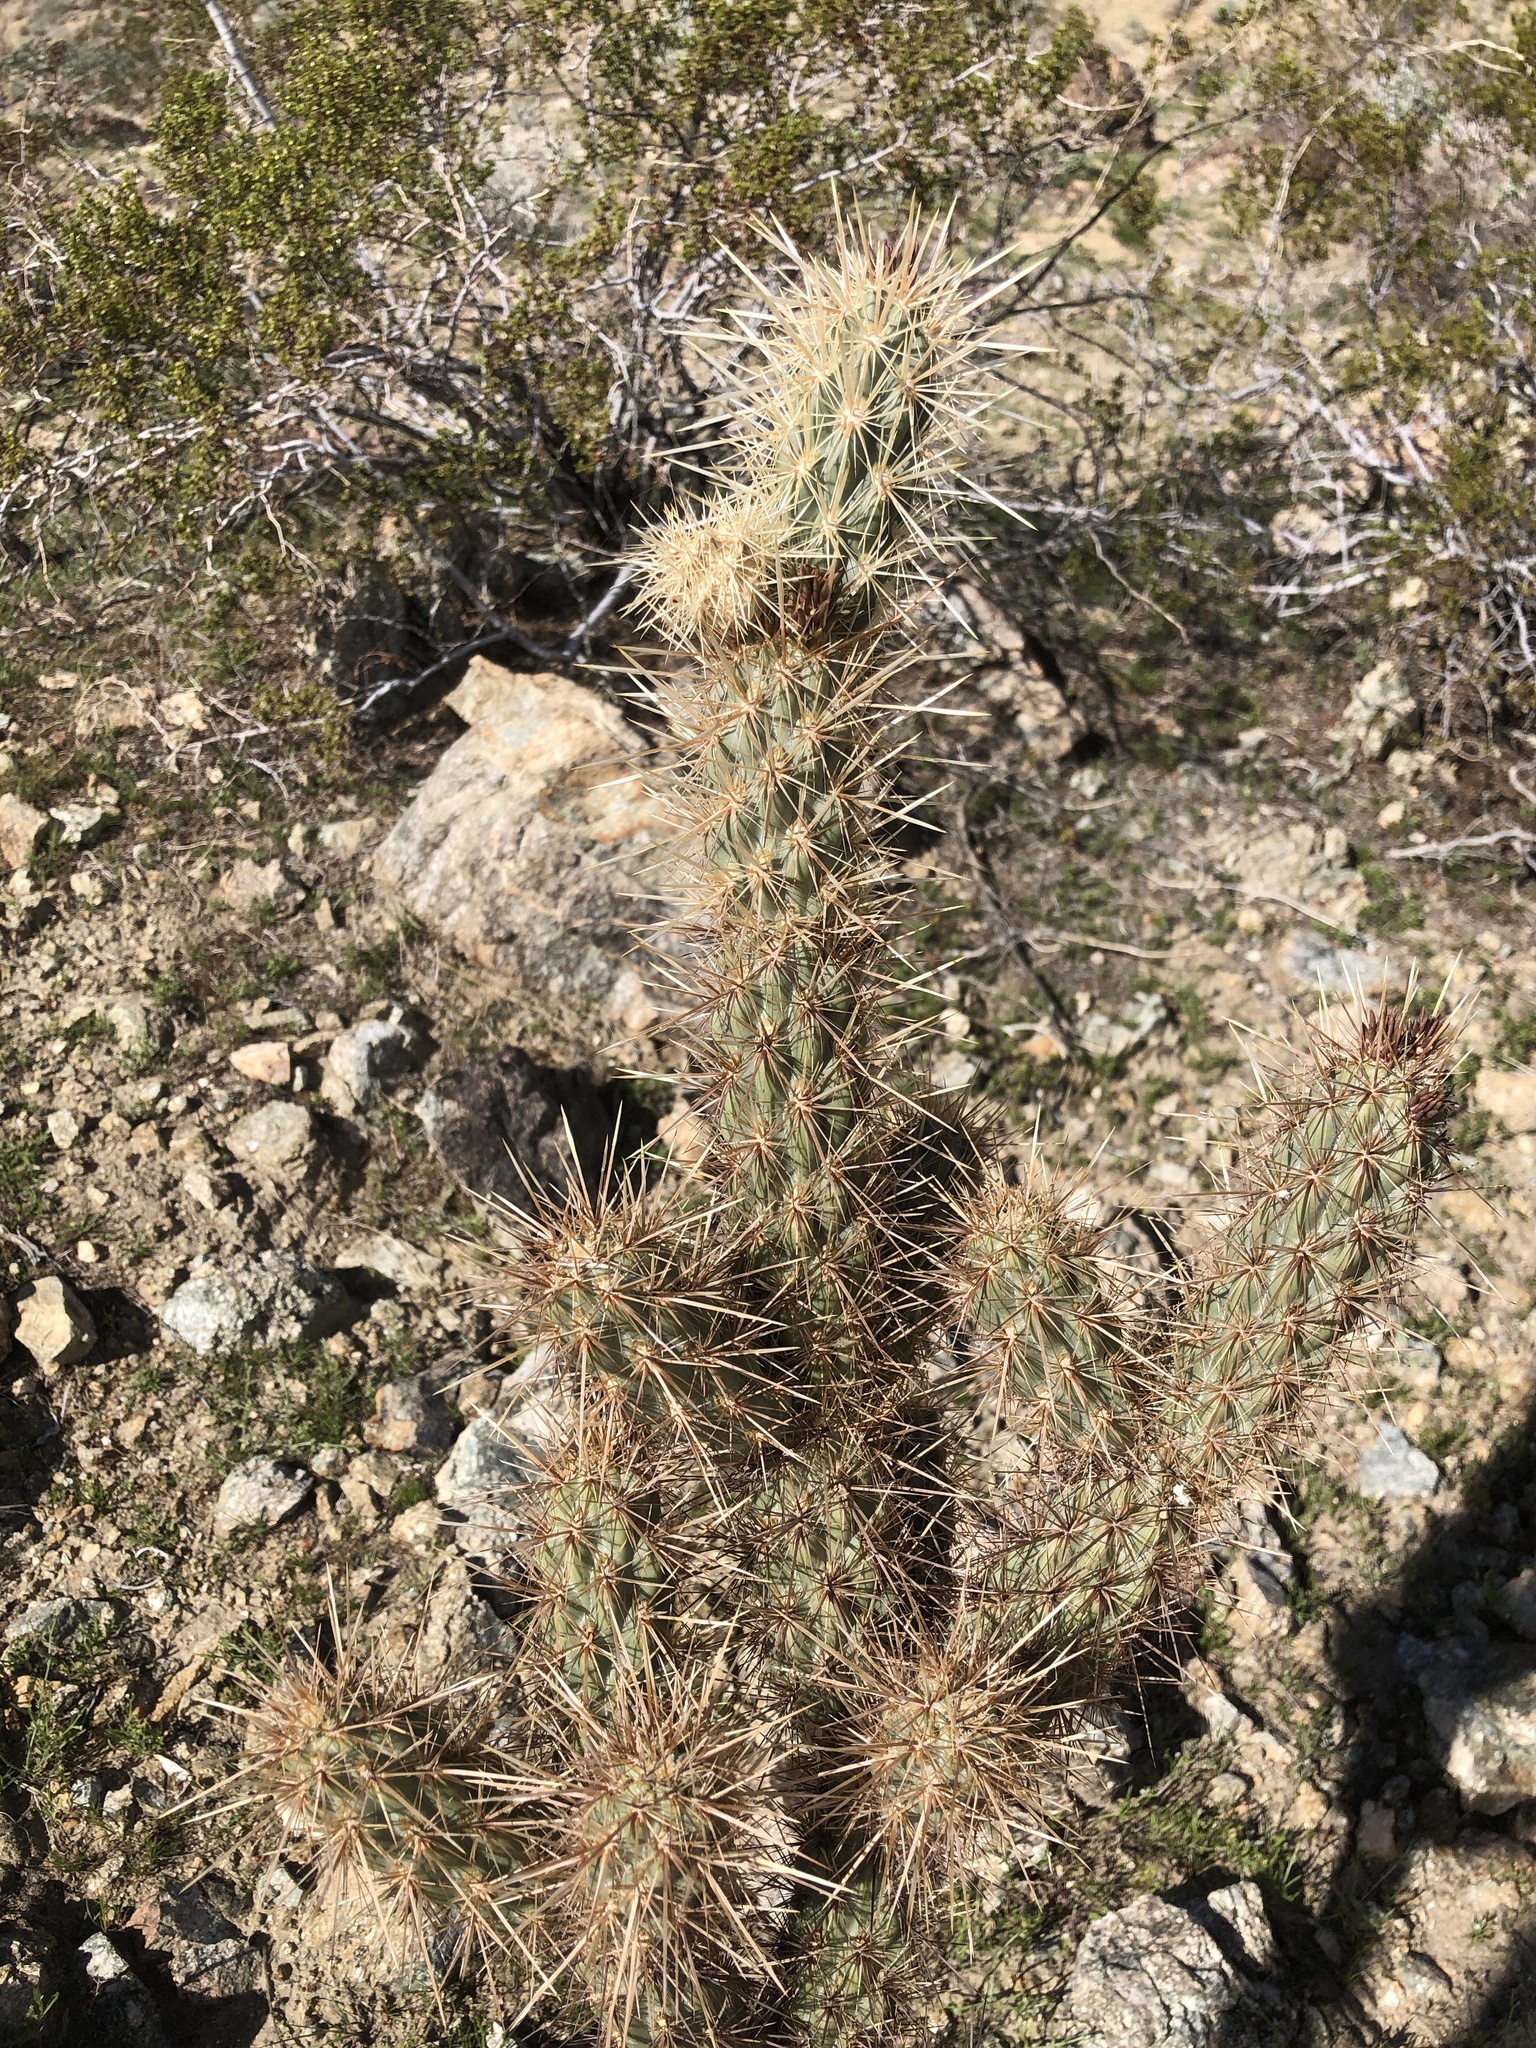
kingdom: Plantae
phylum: Tracheophyta
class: Magnoliopsida
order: Caryophyllales
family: Cactaceae
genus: Cylindropuntia
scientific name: Cylindropuntia ganderi
